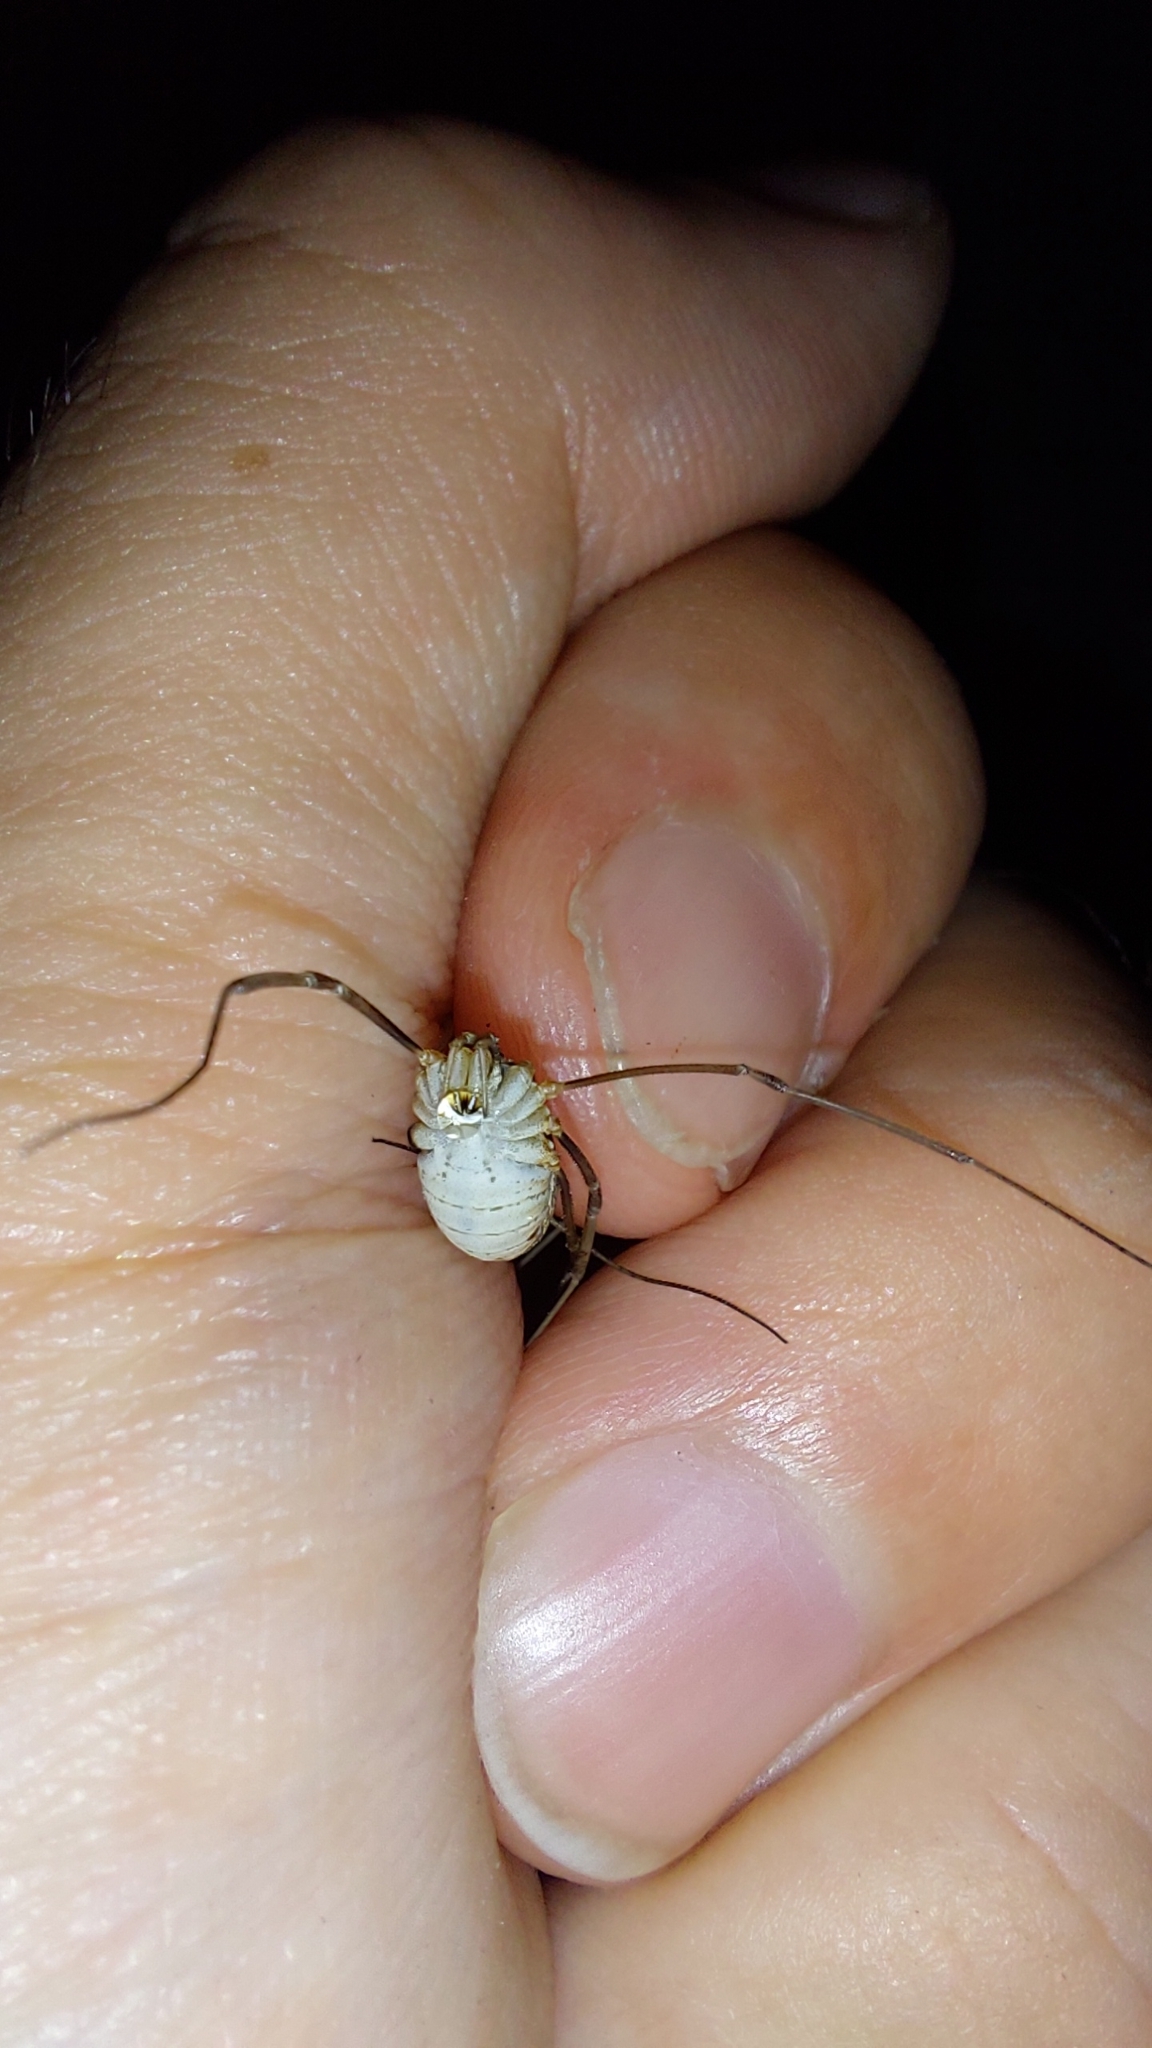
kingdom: Animalia
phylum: Arthropoda
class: Arachnida
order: Opiliones
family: Phalangiidae
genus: Phalangium
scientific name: Phalangium opilio
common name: Daddy longleg
